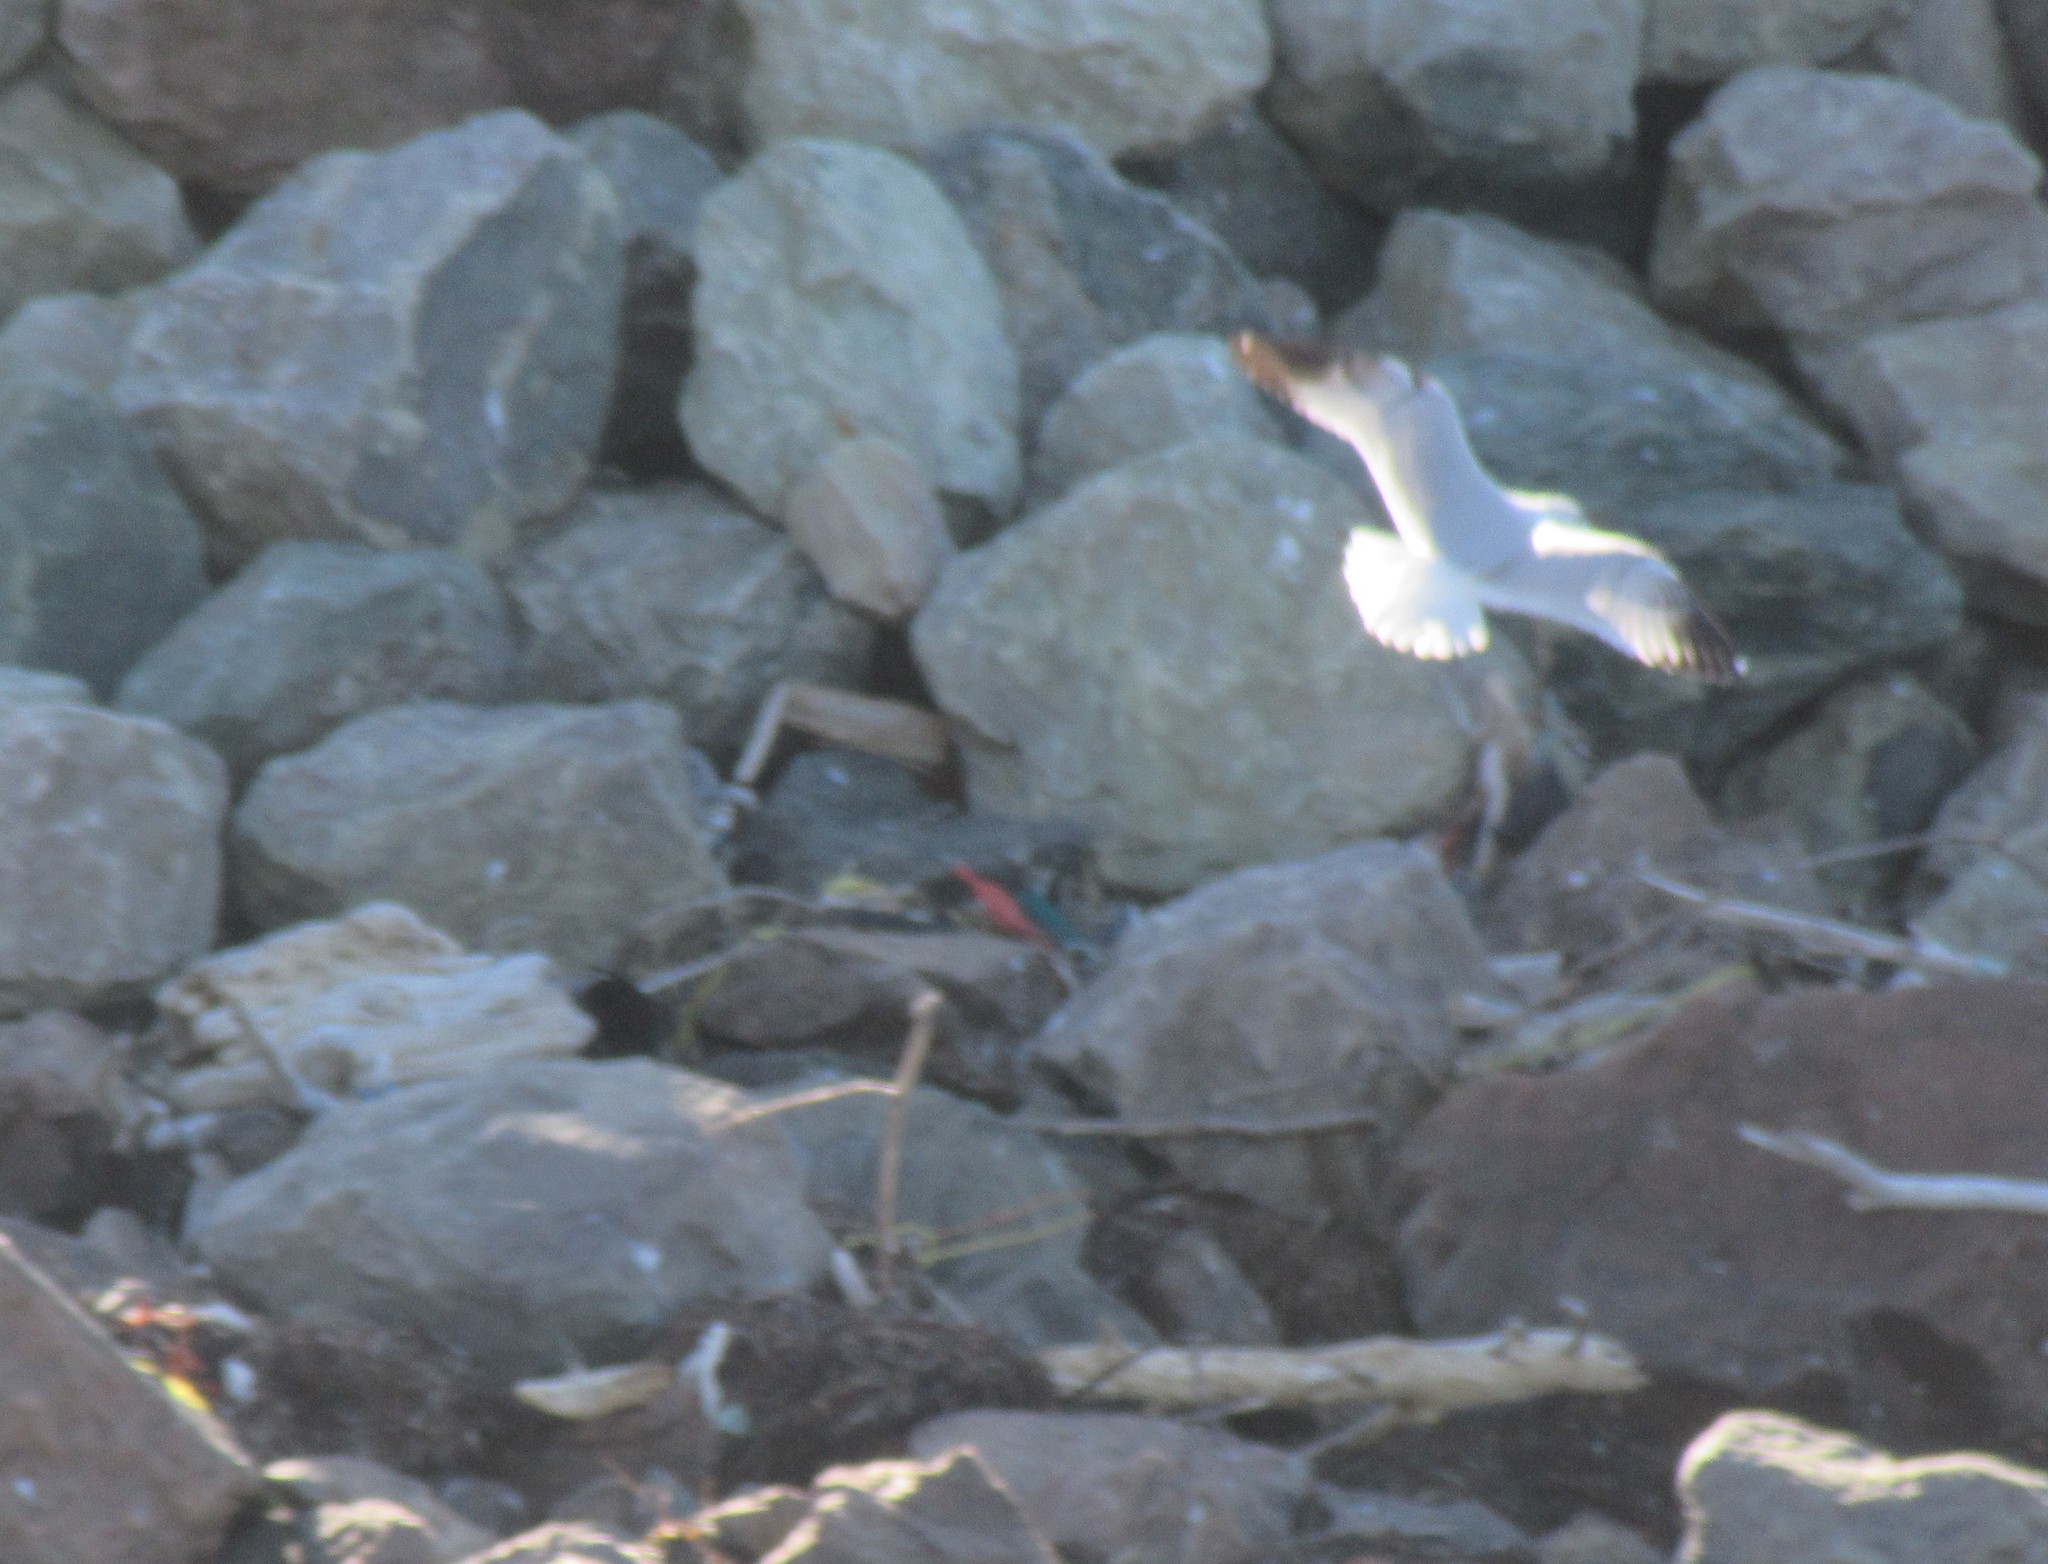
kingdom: Animalia
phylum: Chordata
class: Aves
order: Charadriiformes
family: Laridae
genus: Larus
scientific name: Larus delawarensis
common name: Ring-billed gull
